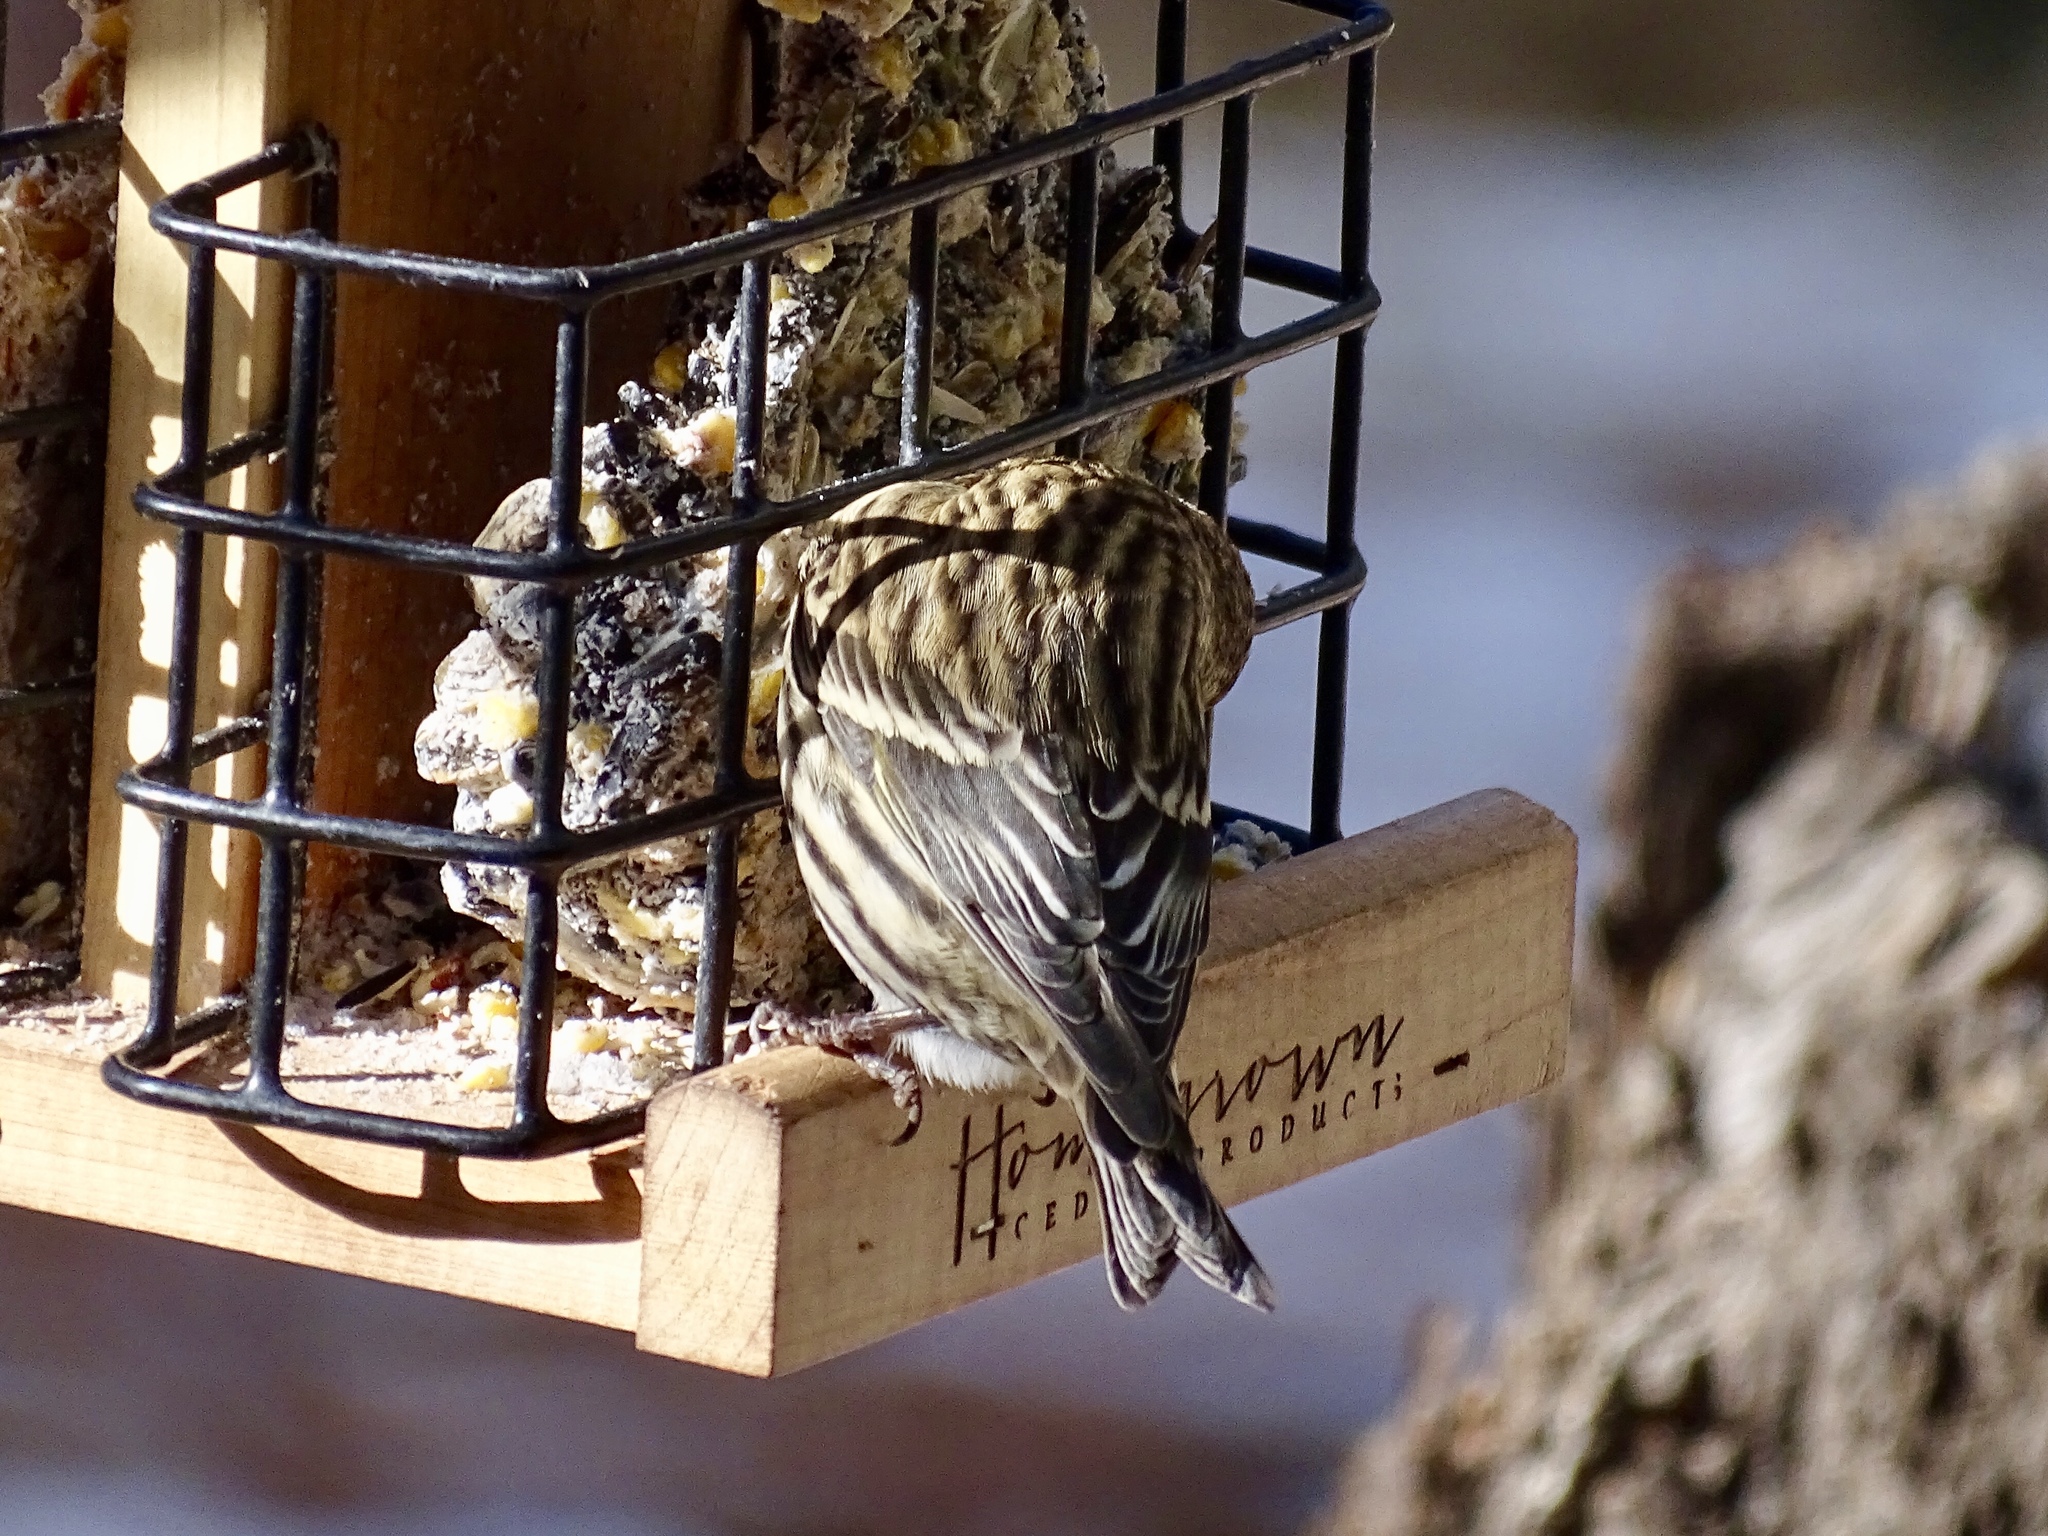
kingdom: Animalia
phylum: Chordata
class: Aves
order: Passeriformes
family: Fringillidae
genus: Spinus
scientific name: Spinus pinus
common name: Pine siskin
